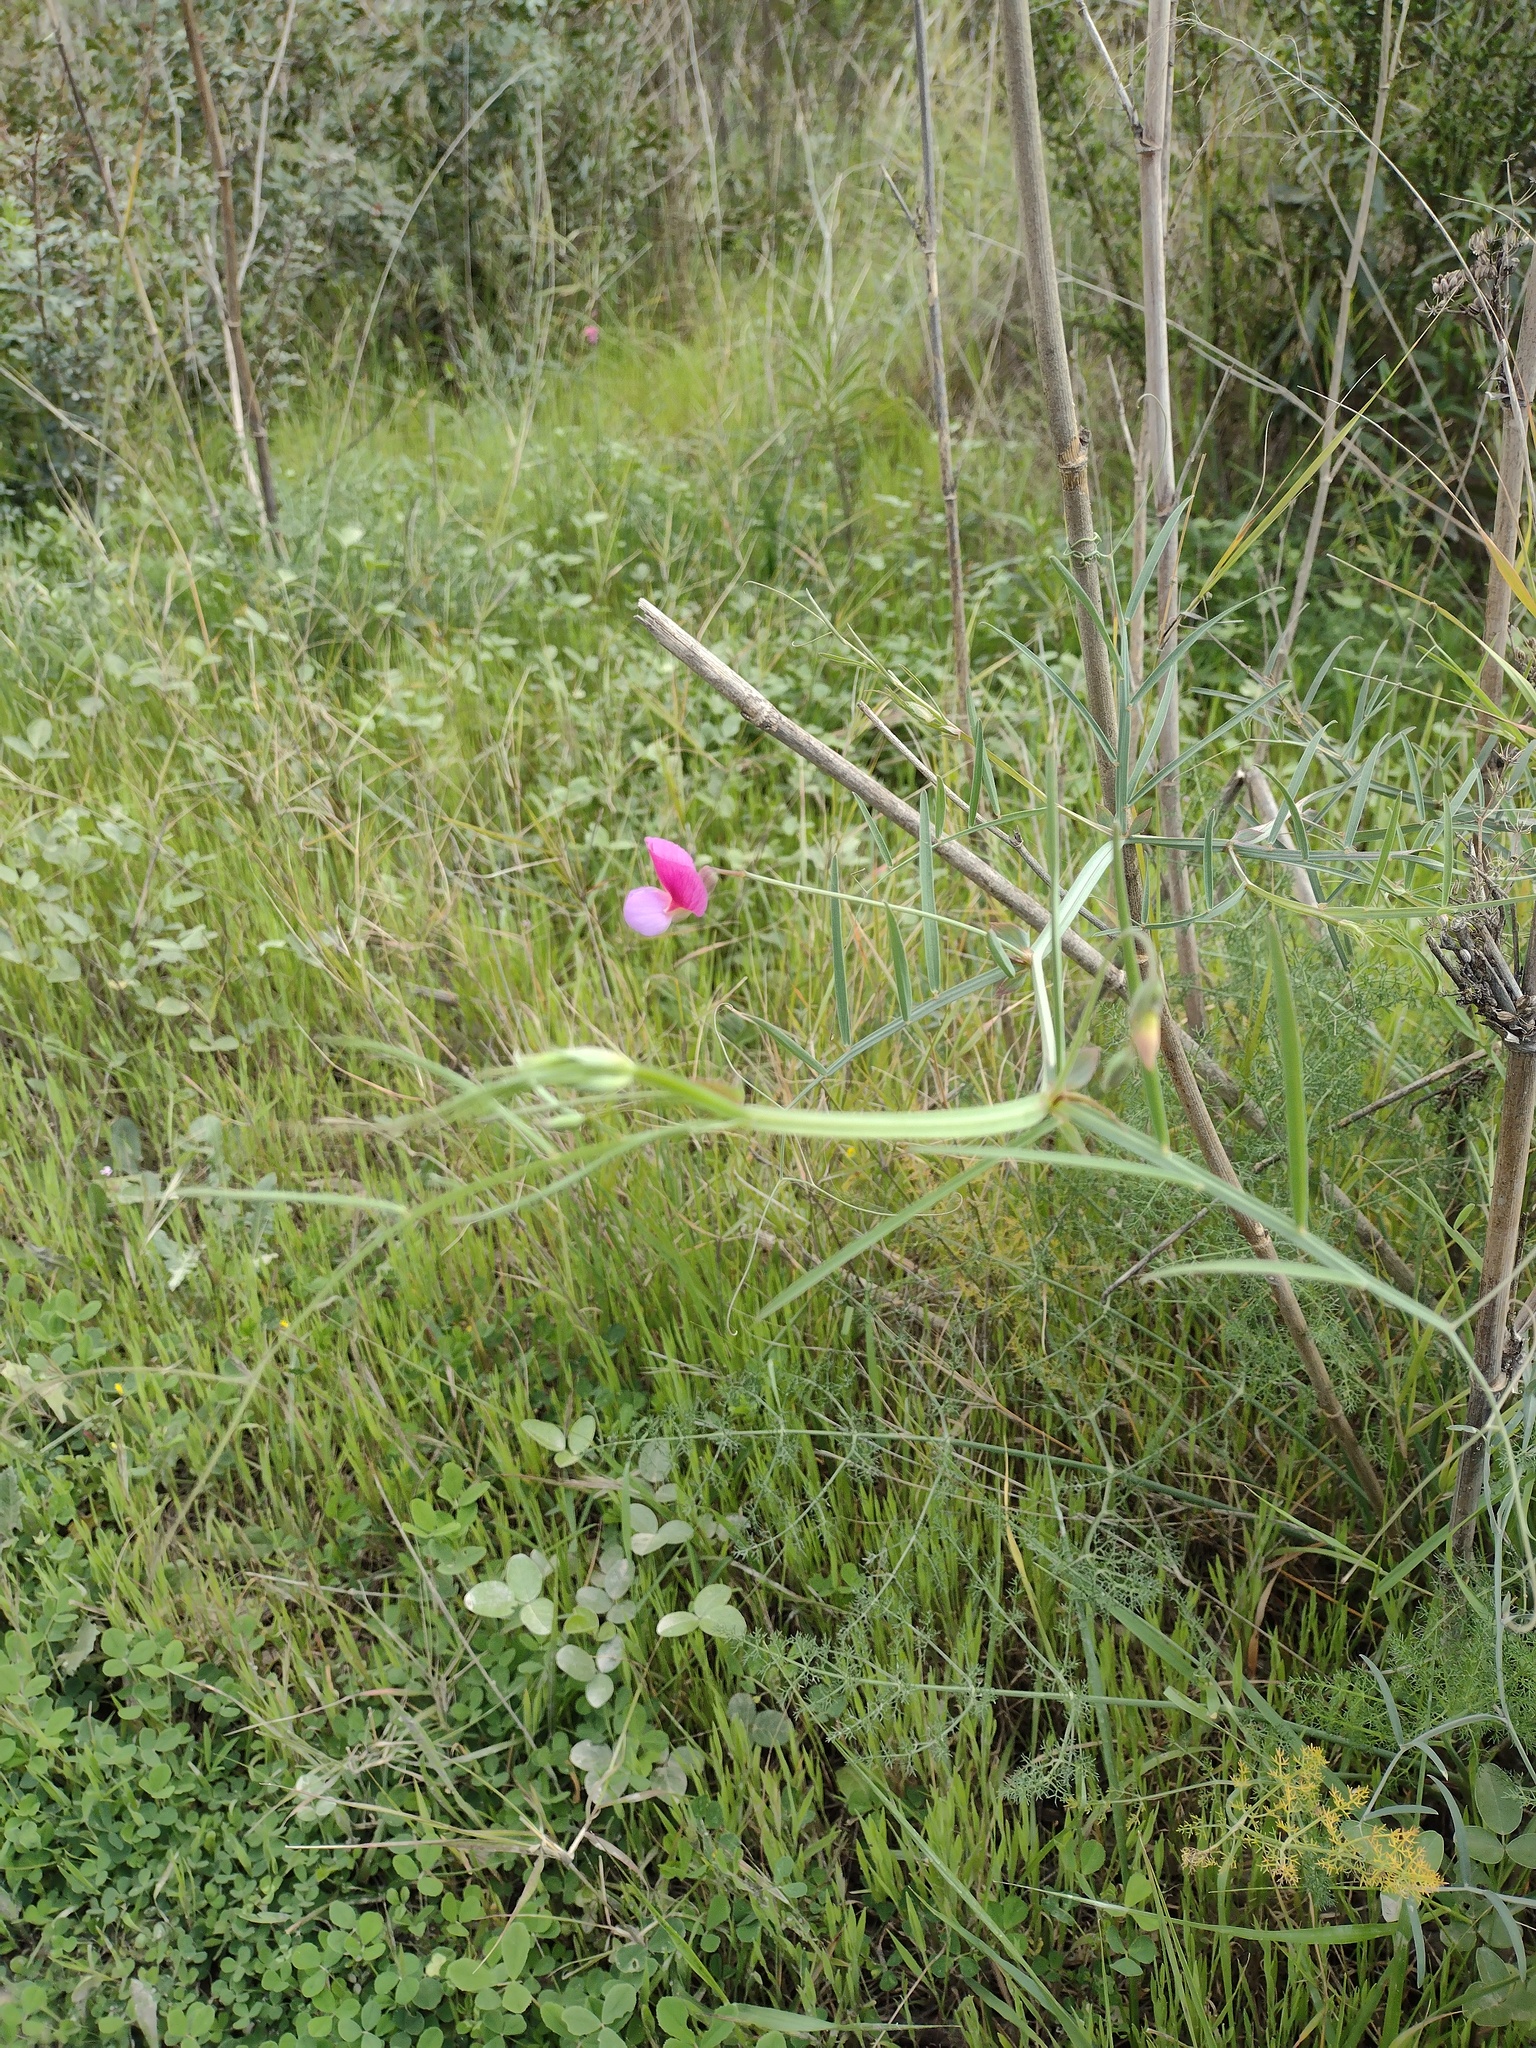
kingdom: Plantae
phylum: Tracheophyta
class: Magnoliopsida
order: Fabales
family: Fabaceae
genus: Lathyrus
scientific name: Lathyrus clymenum
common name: Spanish vetchling
